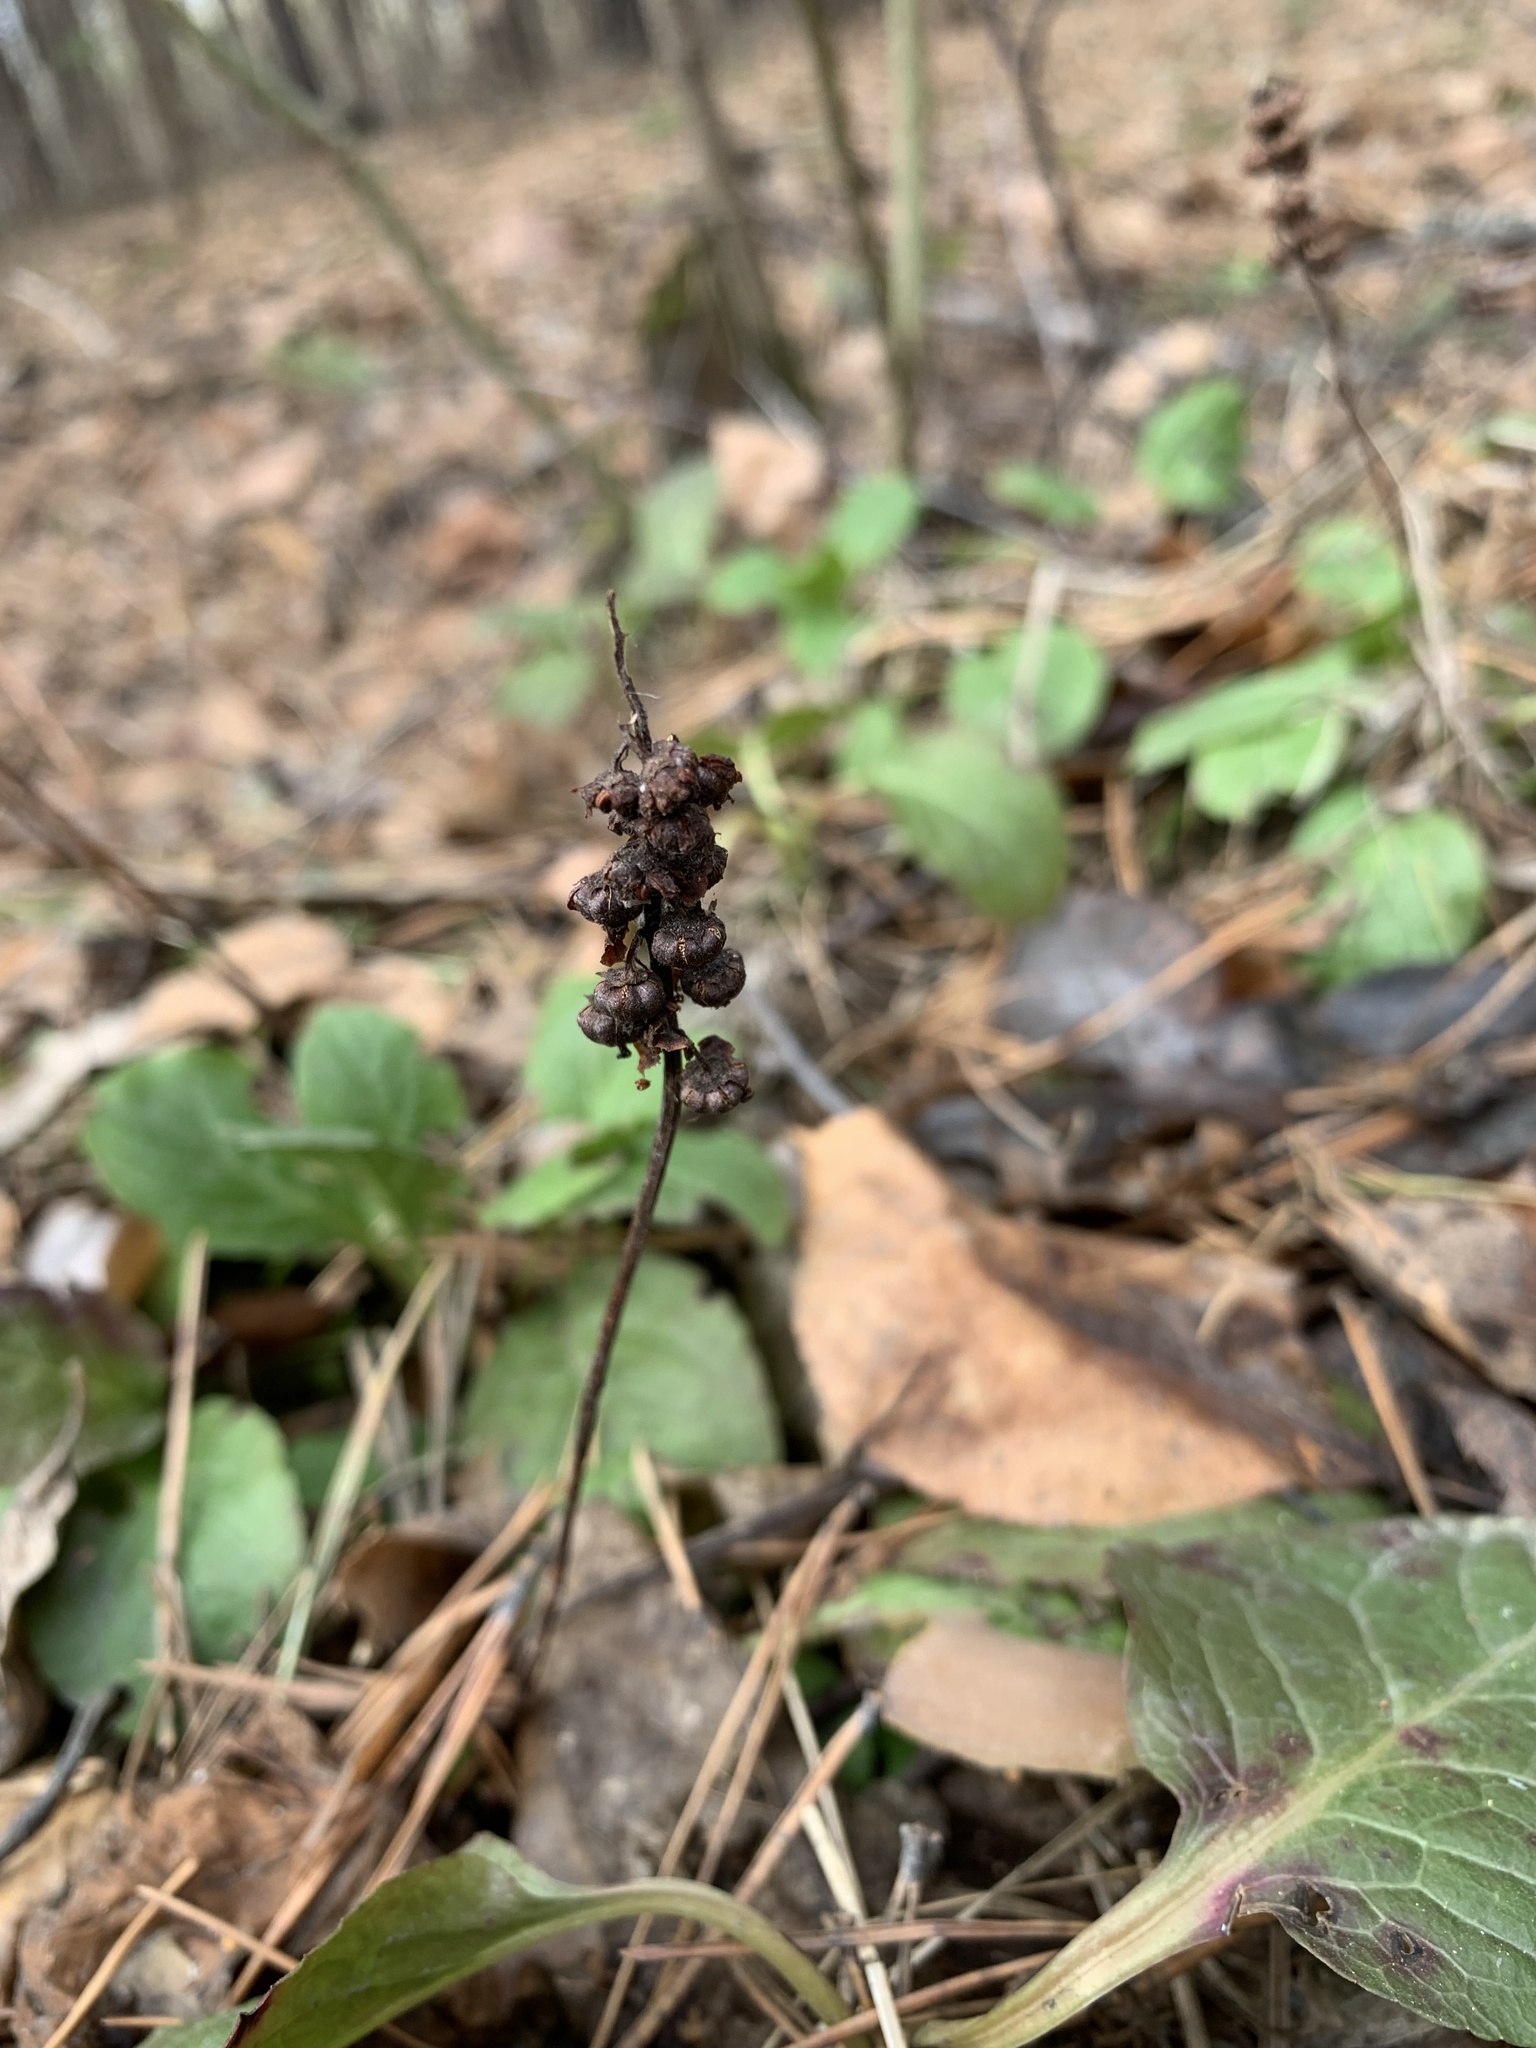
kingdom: Plantae
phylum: Tracheophyta
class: Magnoliopsida
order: Ericales
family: Ericaceae
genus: Pyrola
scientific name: Pyrola minor
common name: Common wintergreen
